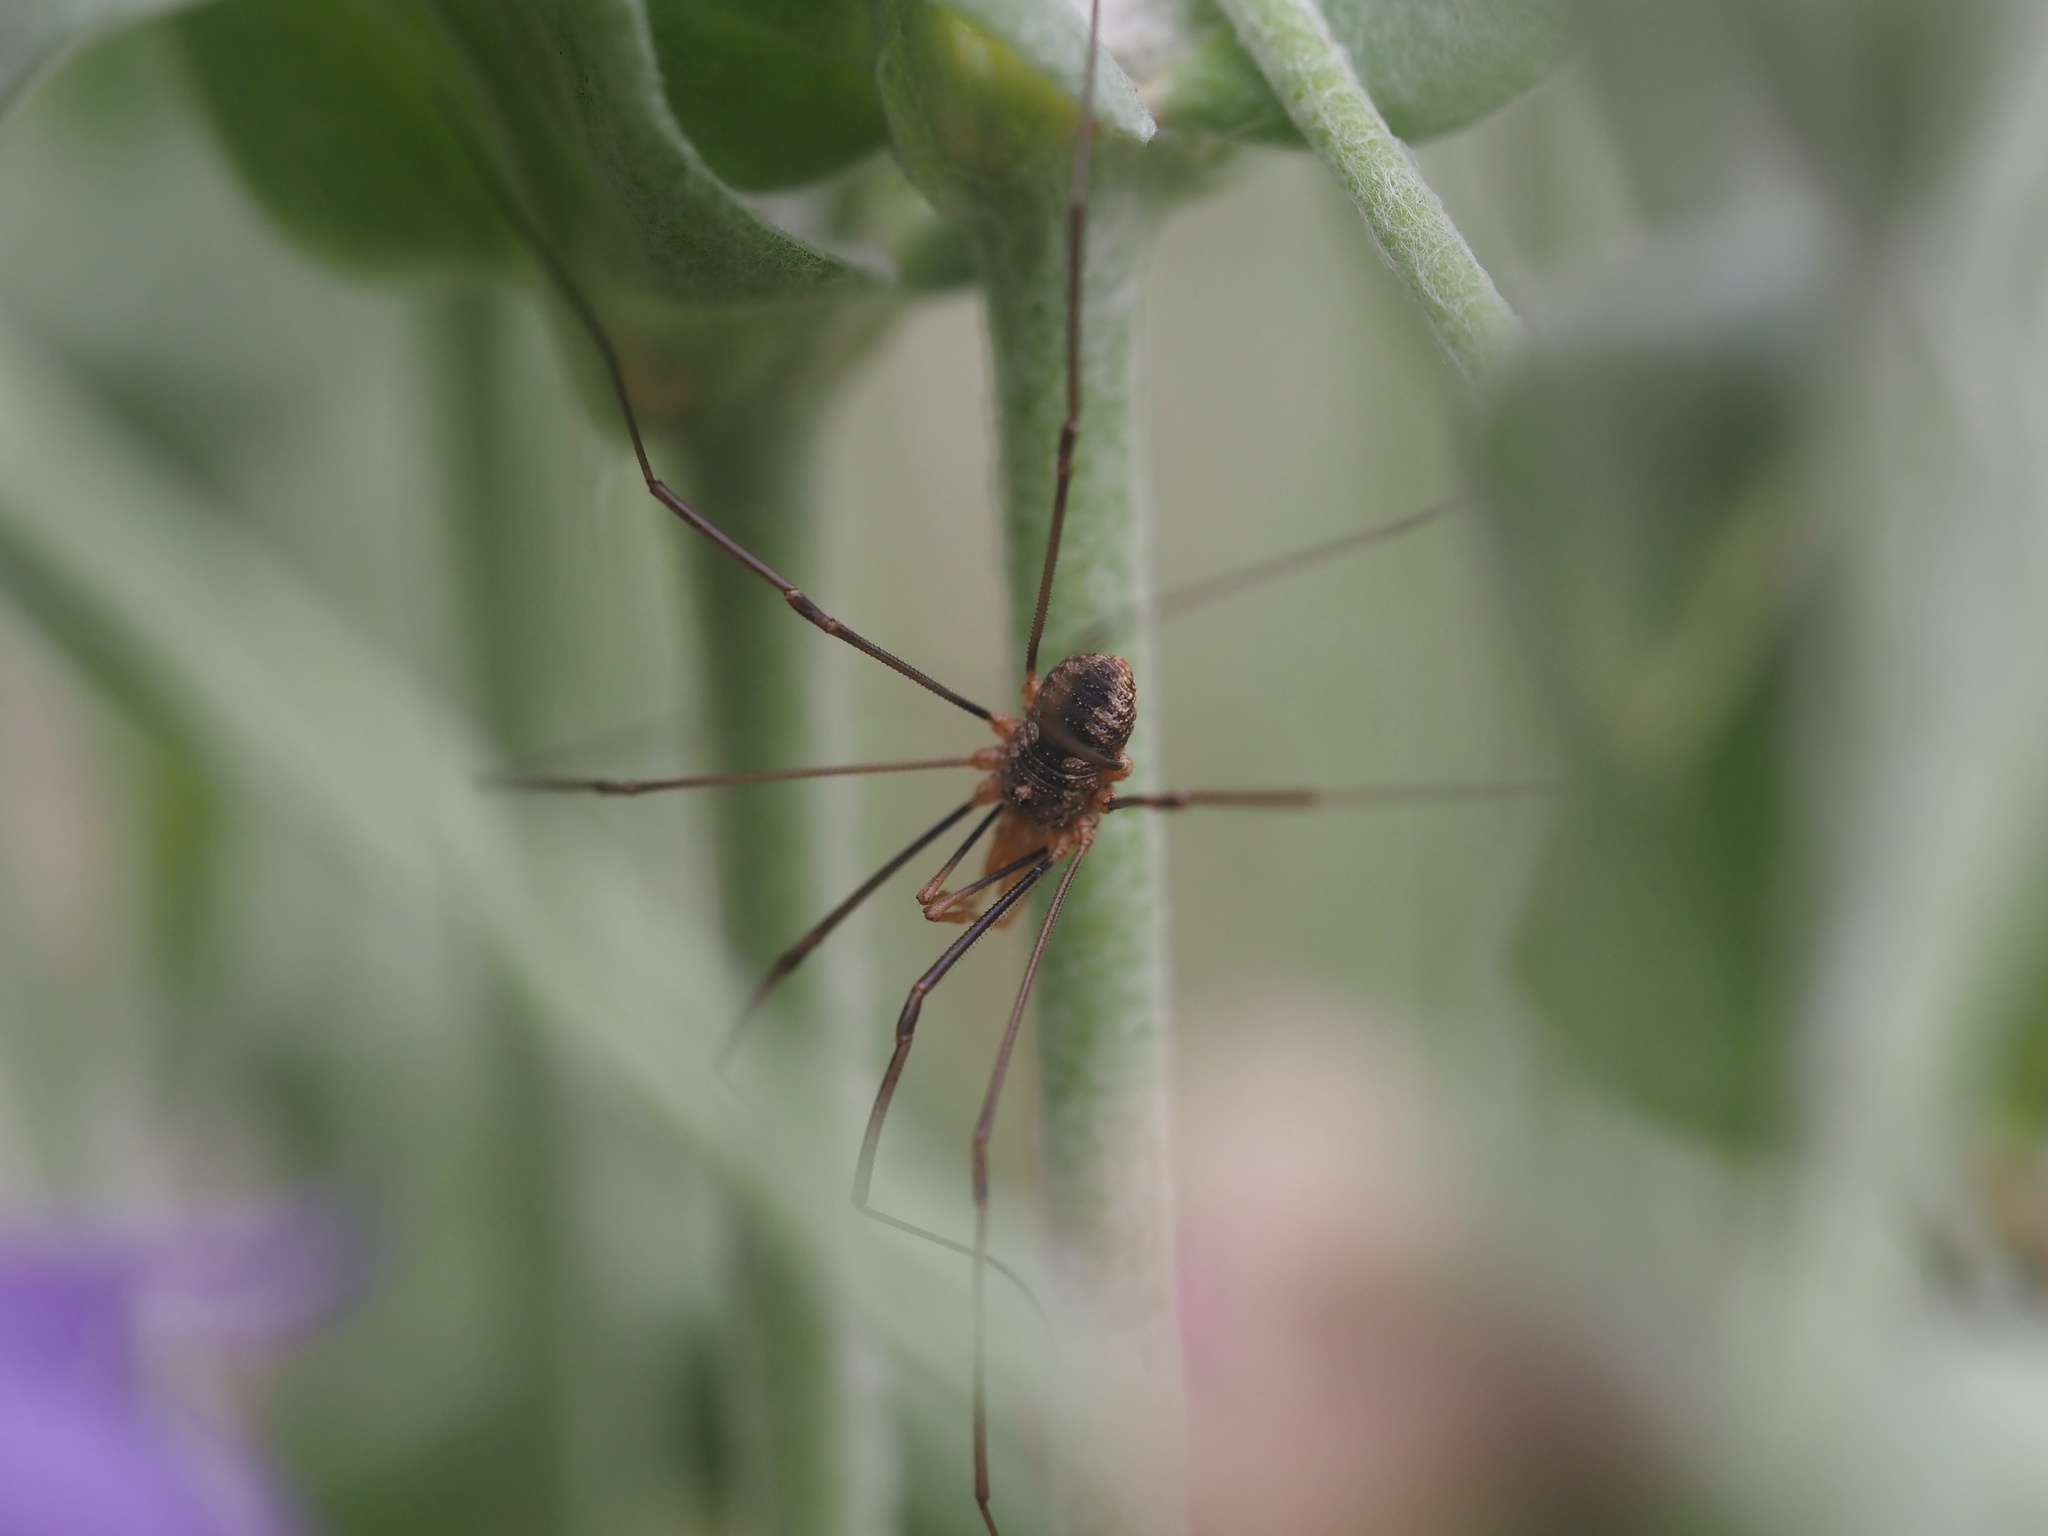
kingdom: Animalia
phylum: Arthropoda
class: Arachnida
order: Opiliones
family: Phalangiidae
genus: Phalangium
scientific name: Phalangium opilio
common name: Daddy longleg
